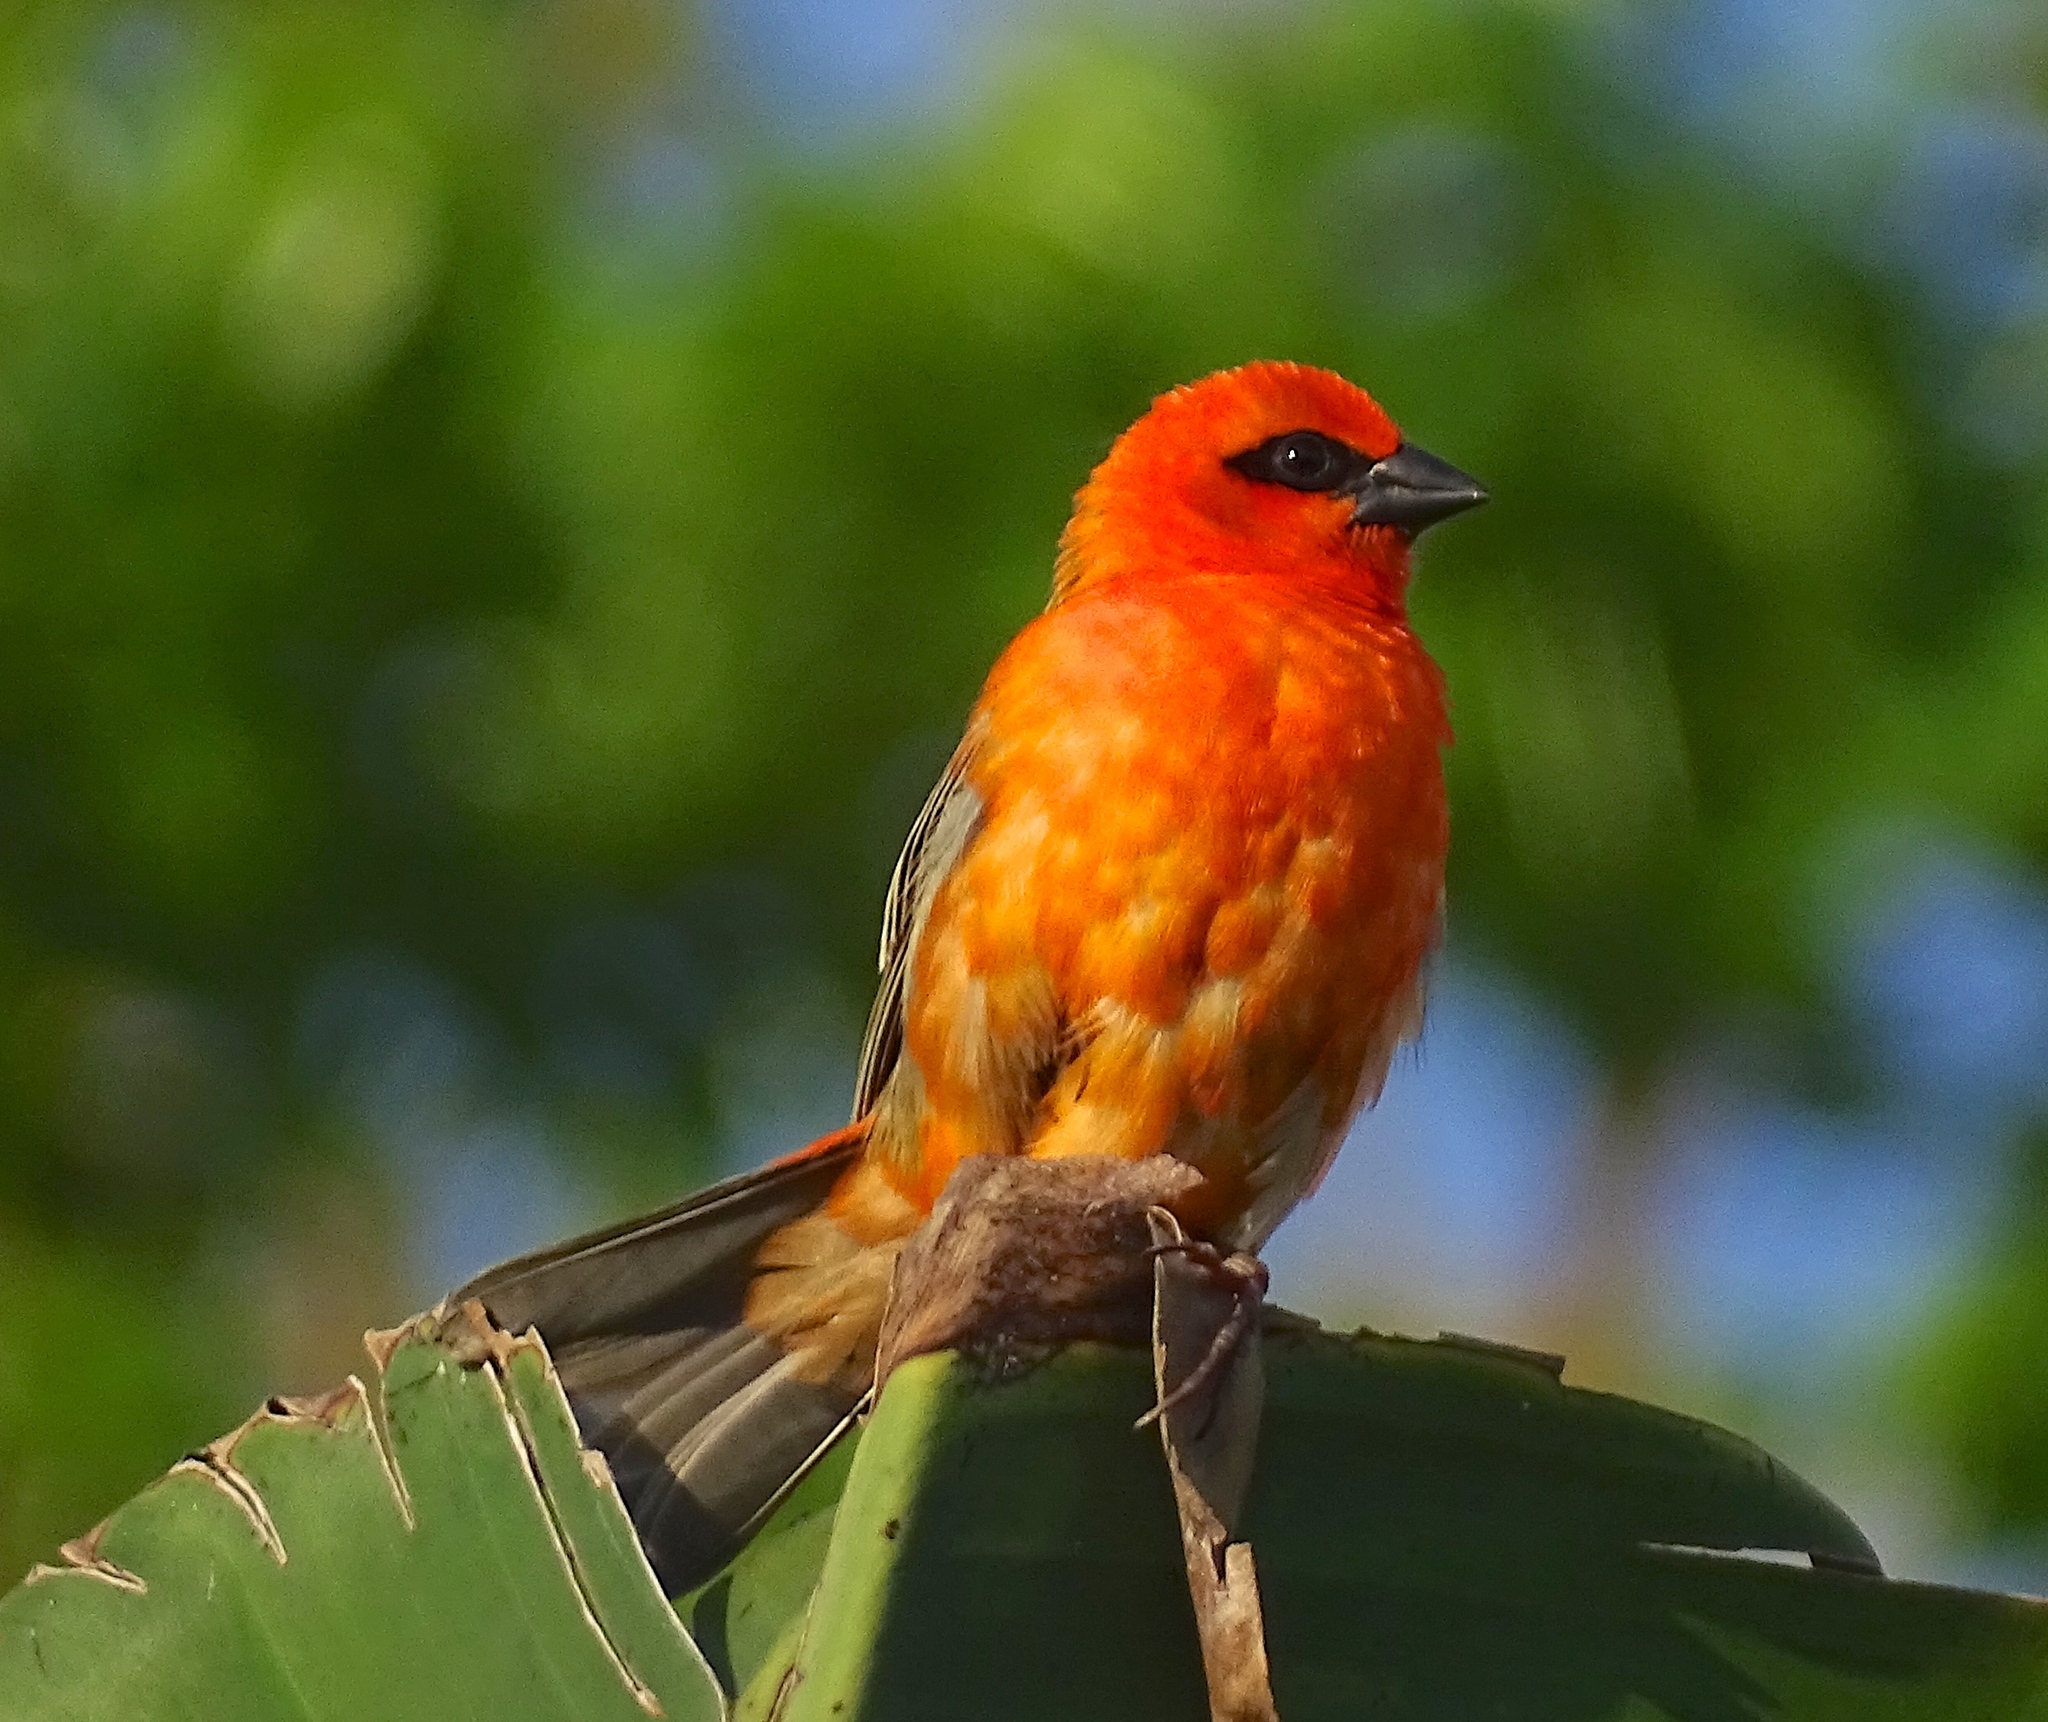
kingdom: Animalia
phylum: Chordata
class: Aves
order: Passeriformes
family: Ploceidae
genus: Foudia
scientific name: Foudia madagascariensis
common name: Red fody
